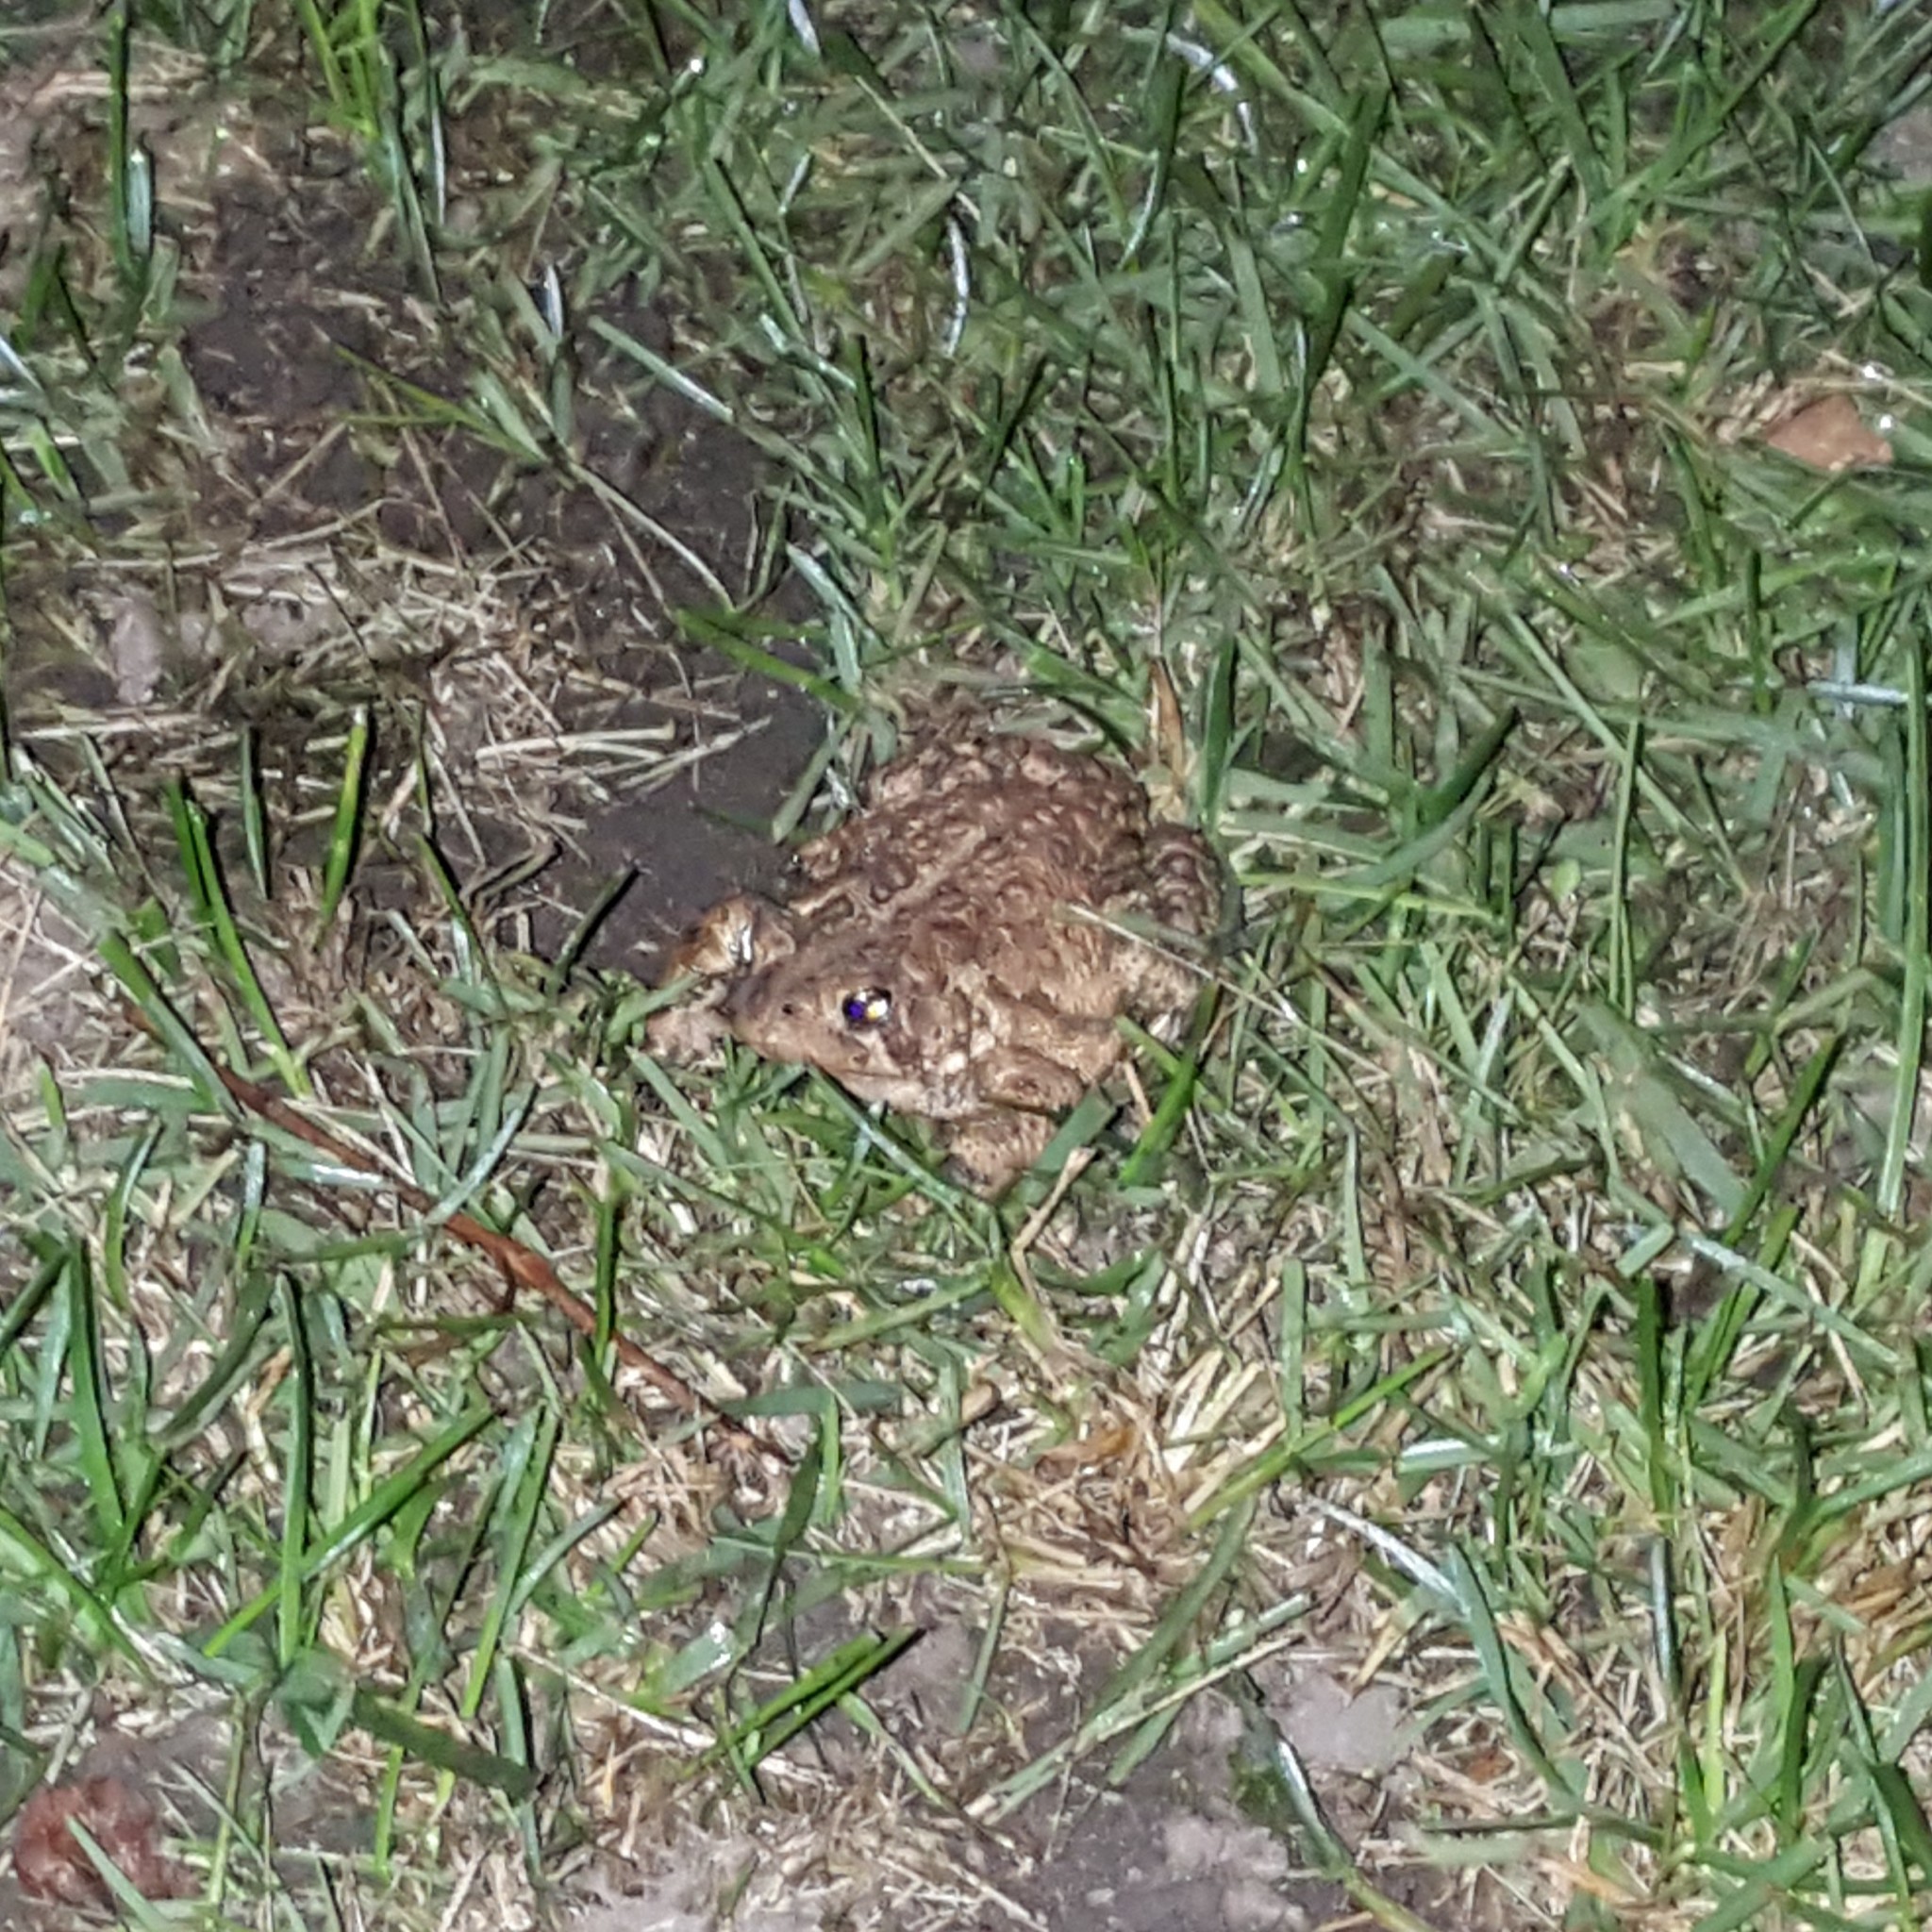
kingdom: Animalia
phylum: Chordata
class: Amphibia
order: Anura
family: Bufonidae
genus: Anaxyrus
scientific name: Anaxyrus americanus
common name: American toad
